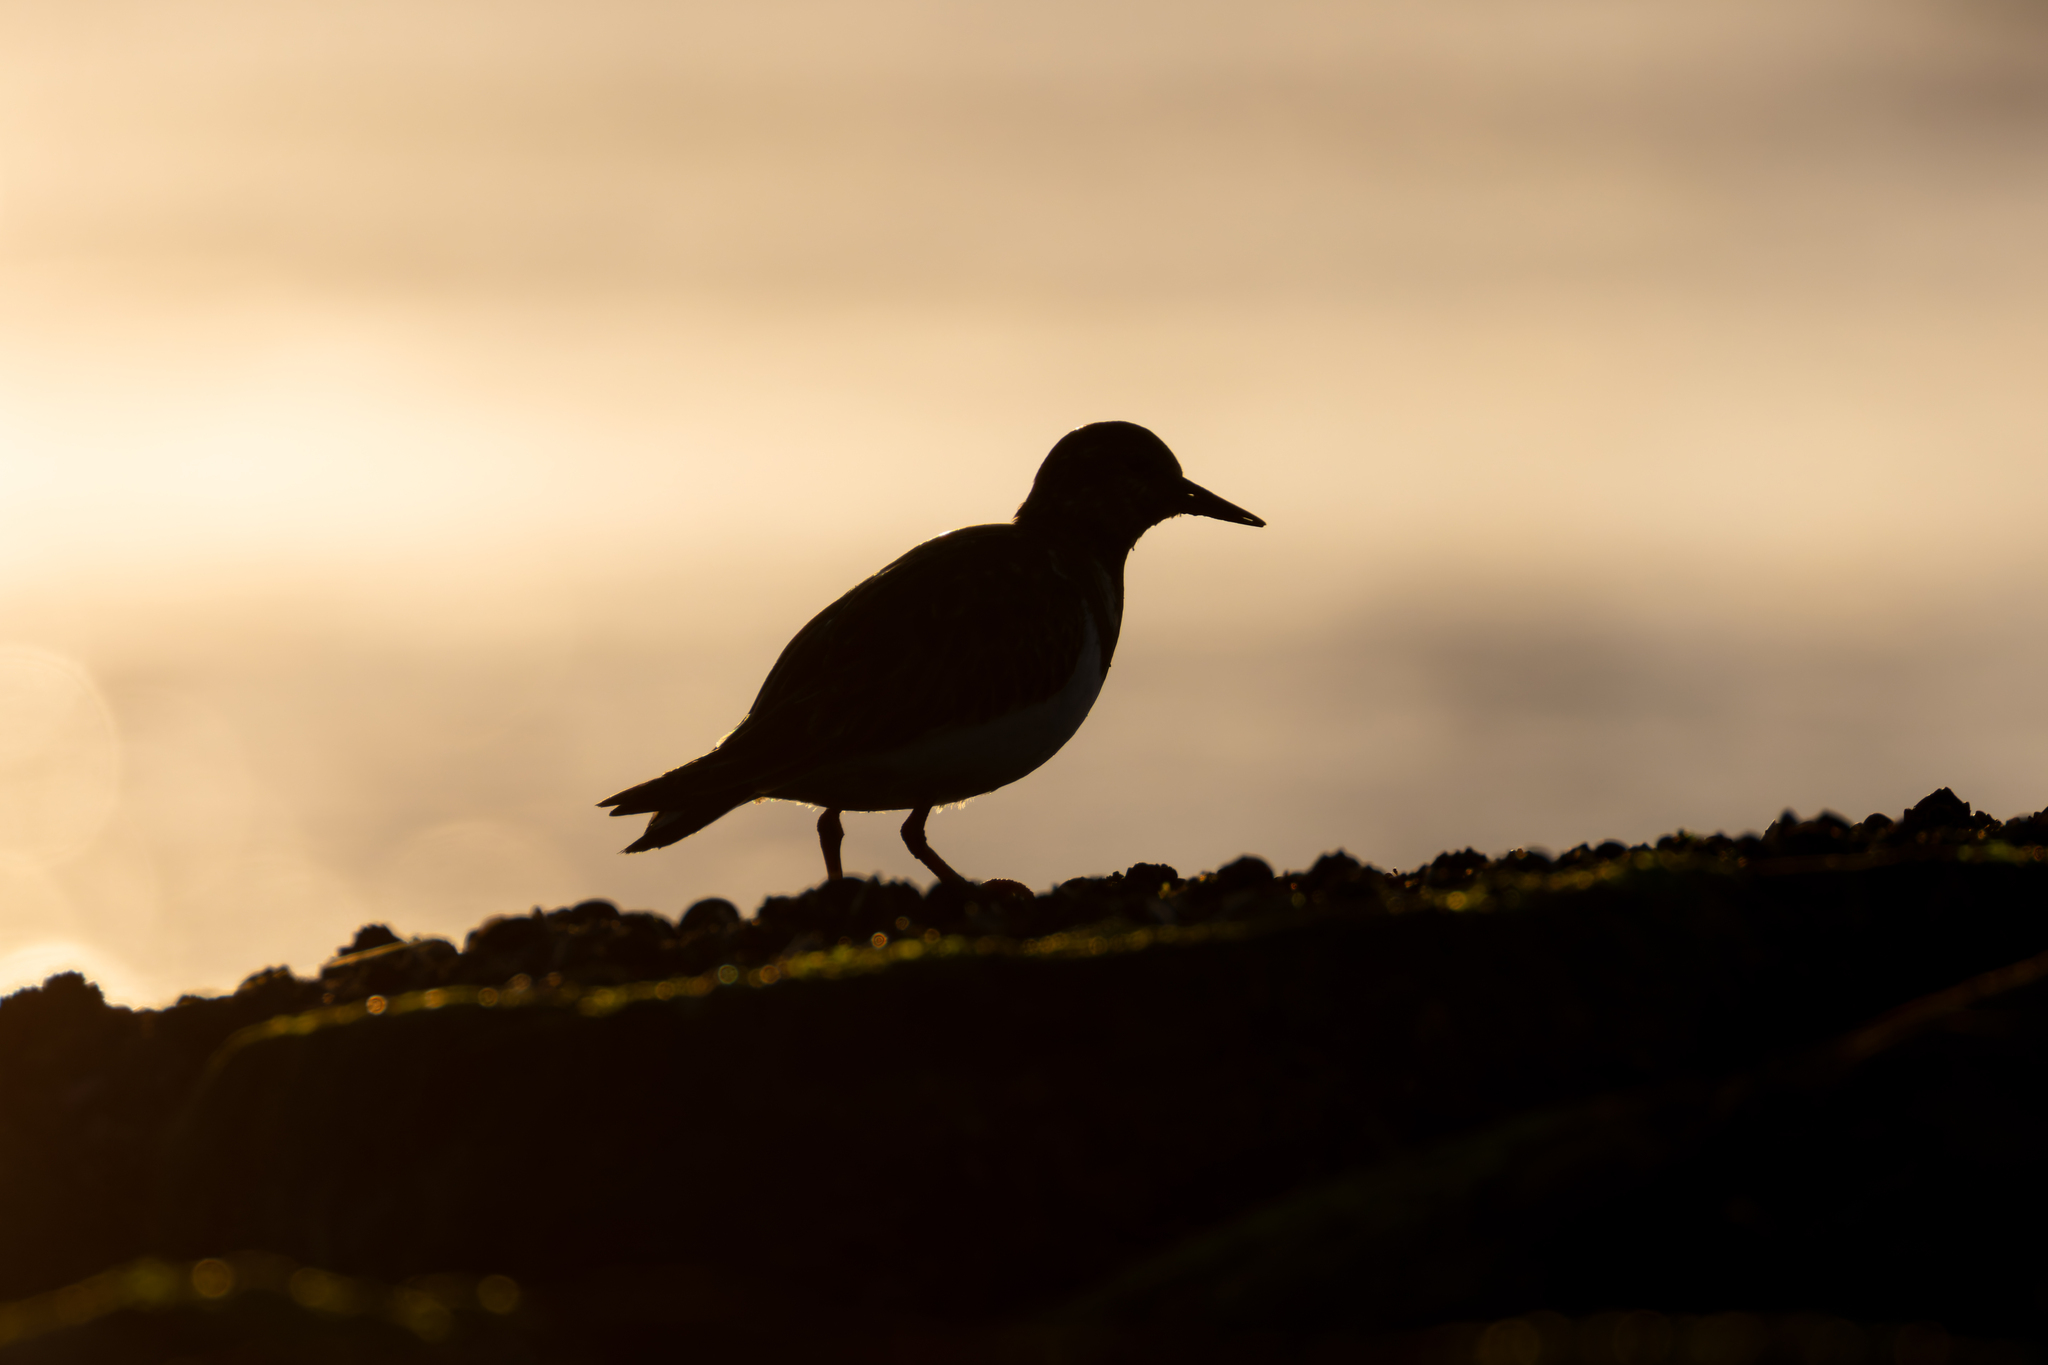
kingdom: Animalia
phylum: Chordata
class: Aves
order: Charadriiformes
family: Scolopacidae
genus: Arenaria
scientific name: Arenaria interpres
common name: Ruddy turnstone
